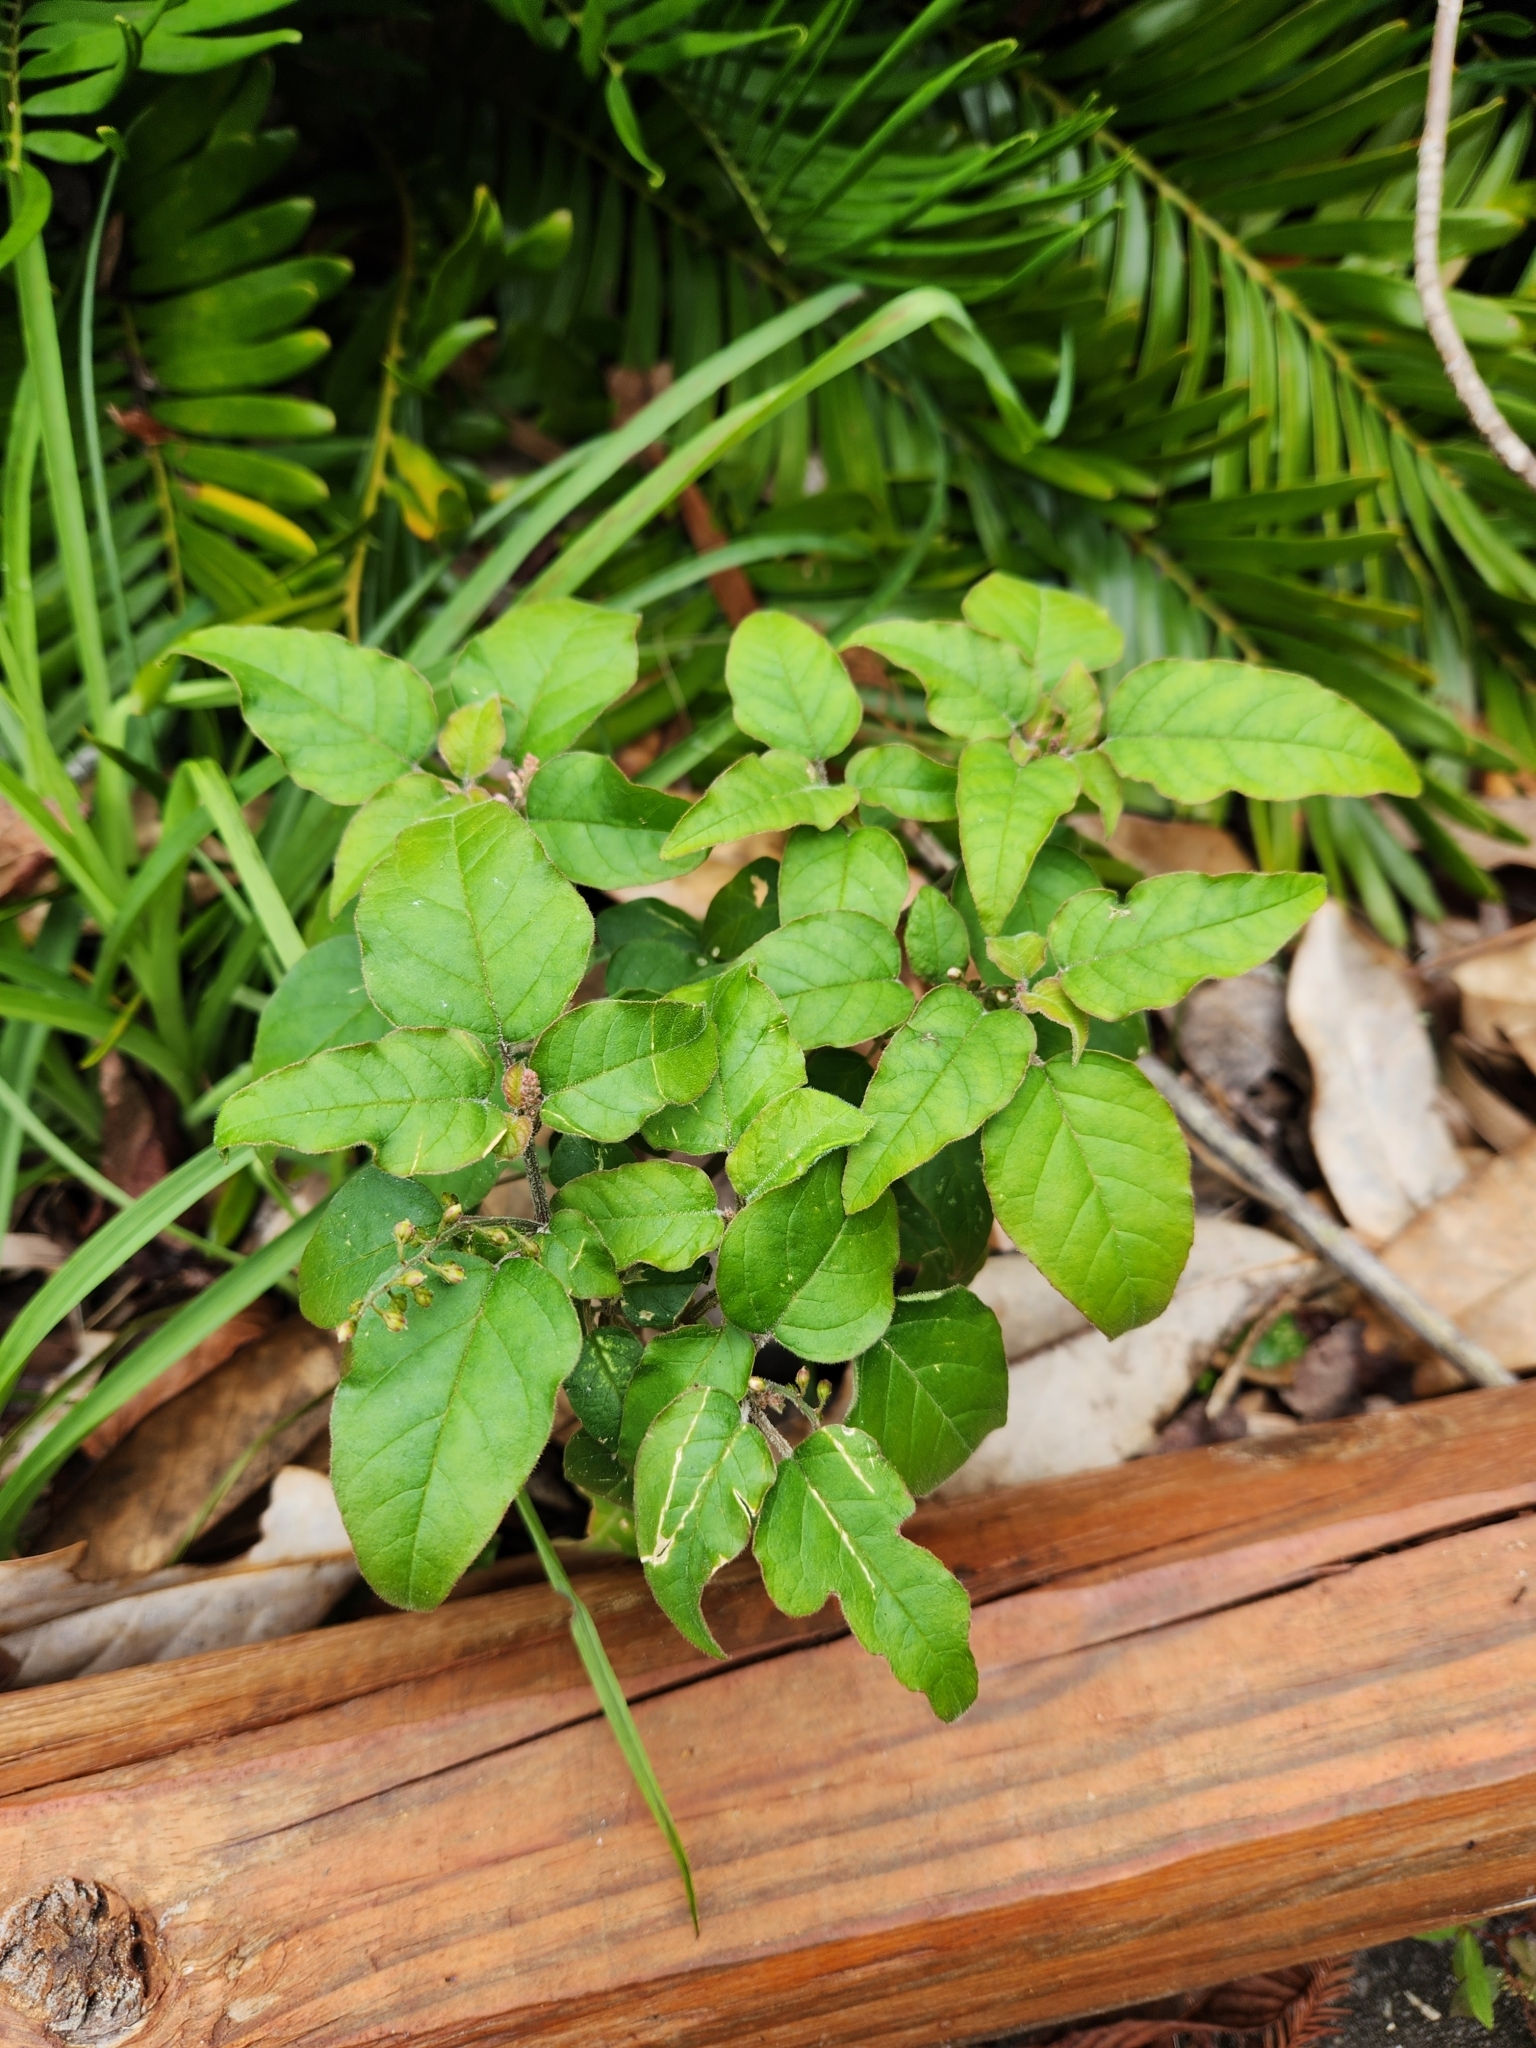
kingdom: Plantae
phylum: Tracheophyta
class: Magnoliopsida
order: Caryophyllales
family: Phytolaccaceae
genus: Rivina
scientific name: Rivina humilis
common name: Rougeplant
